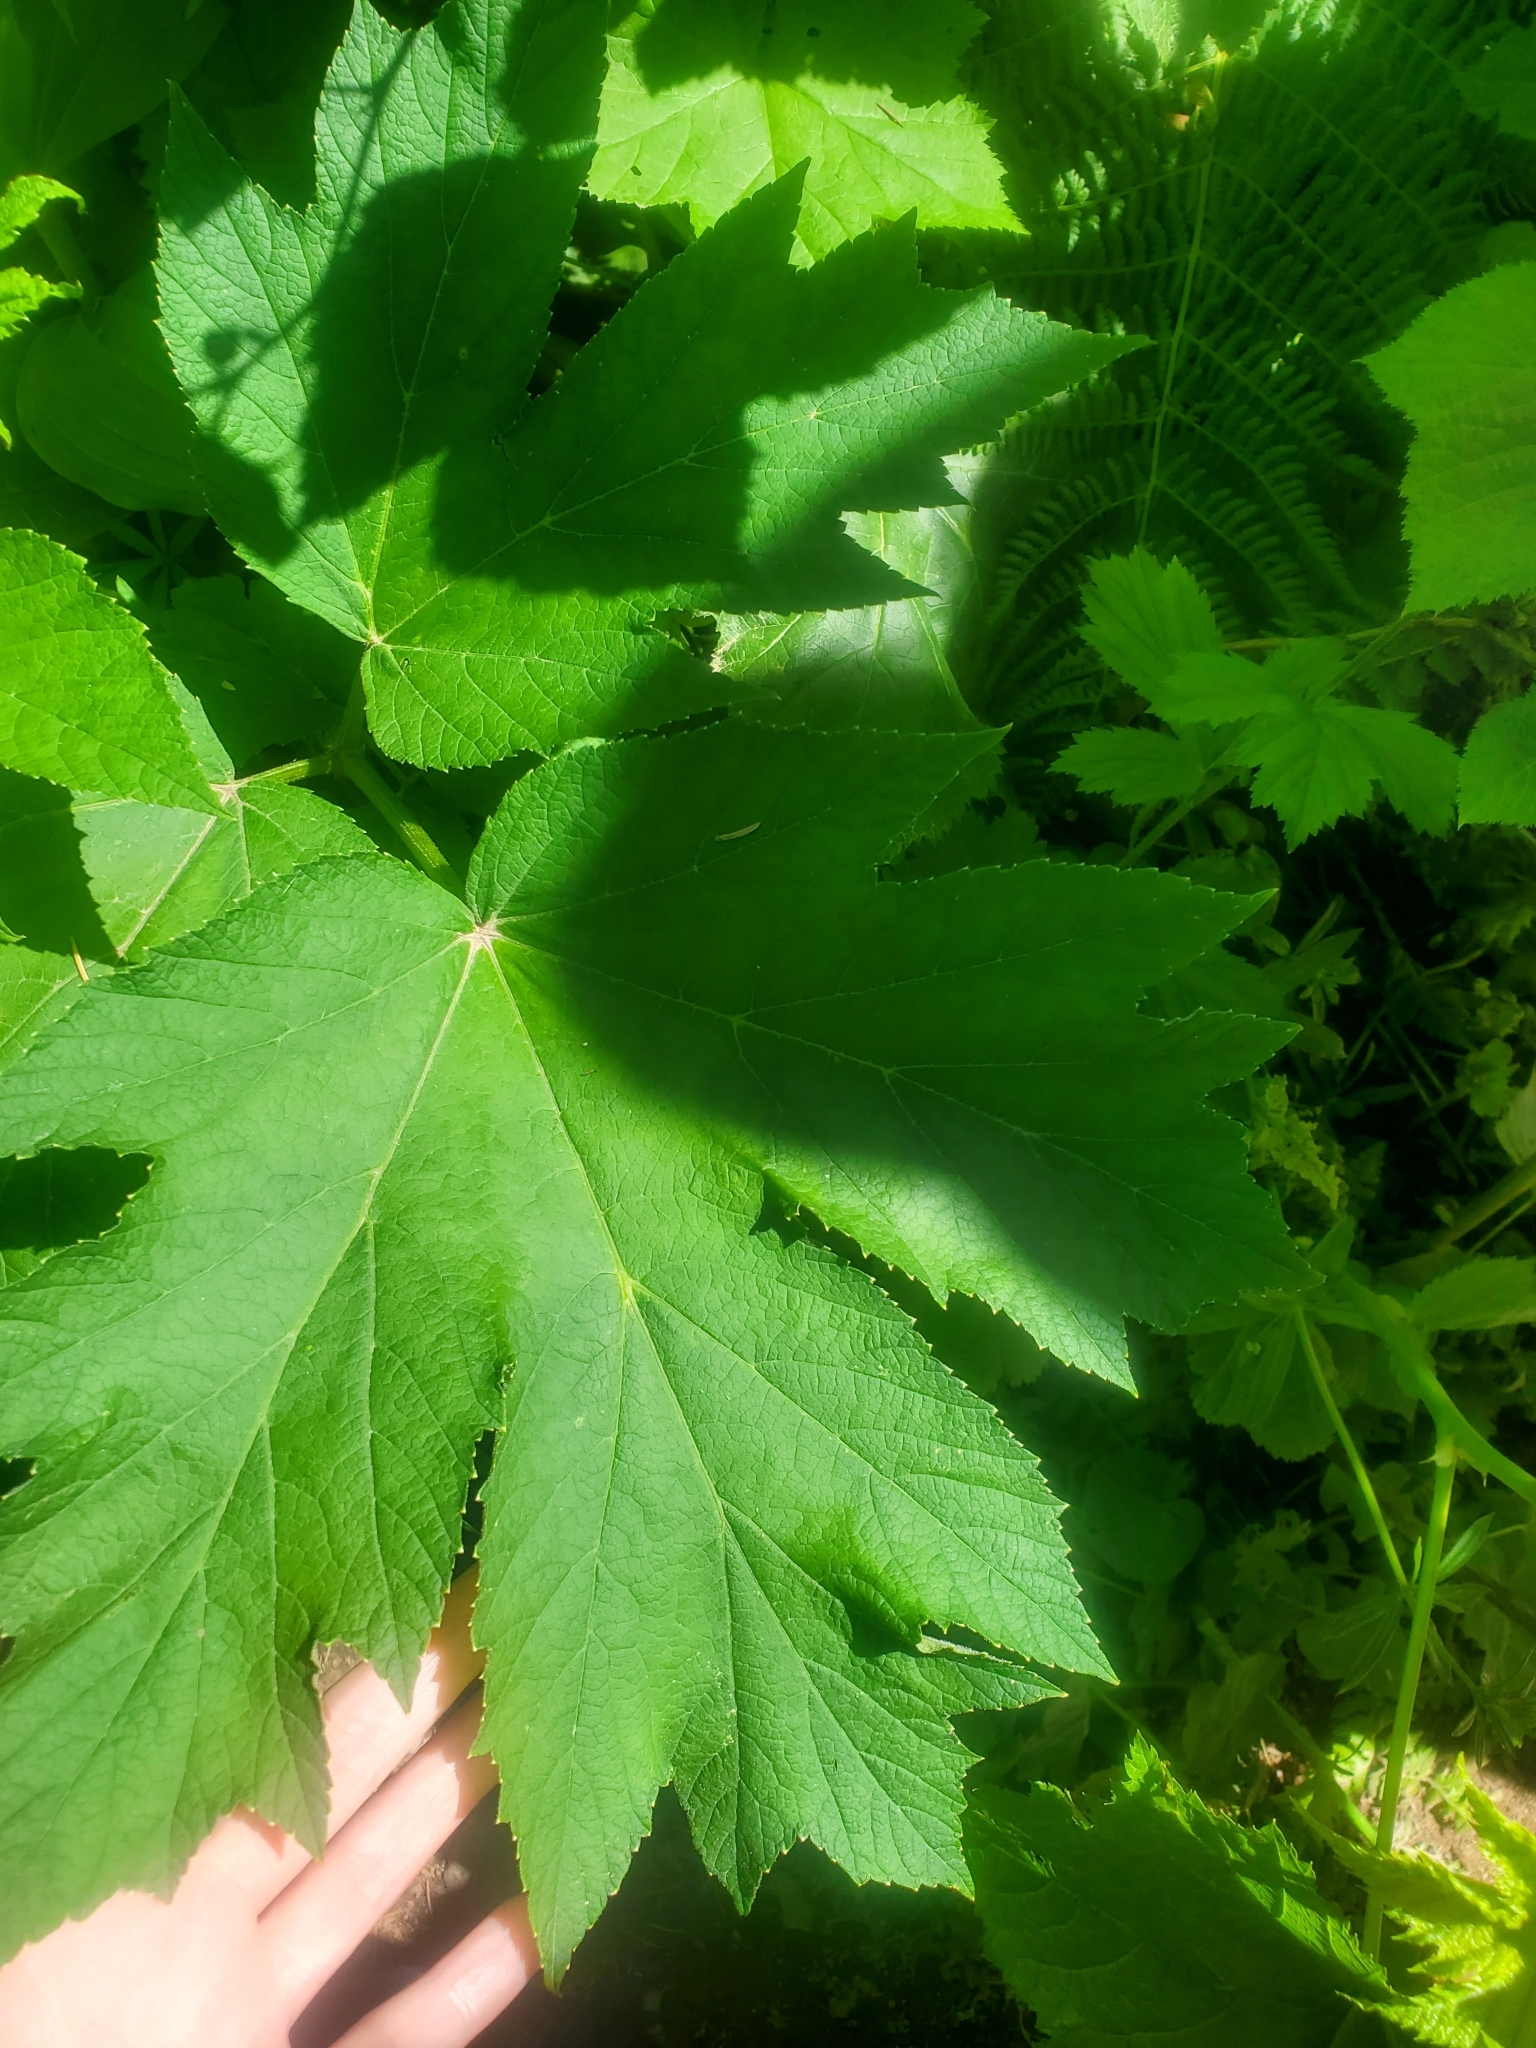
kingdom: Plantae
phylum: Tracheophyta
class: Magnoliopsida
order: Apiales
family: Apiaceae
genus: Heracleum
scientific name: Heracleum maximum
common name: American cow parsnip
